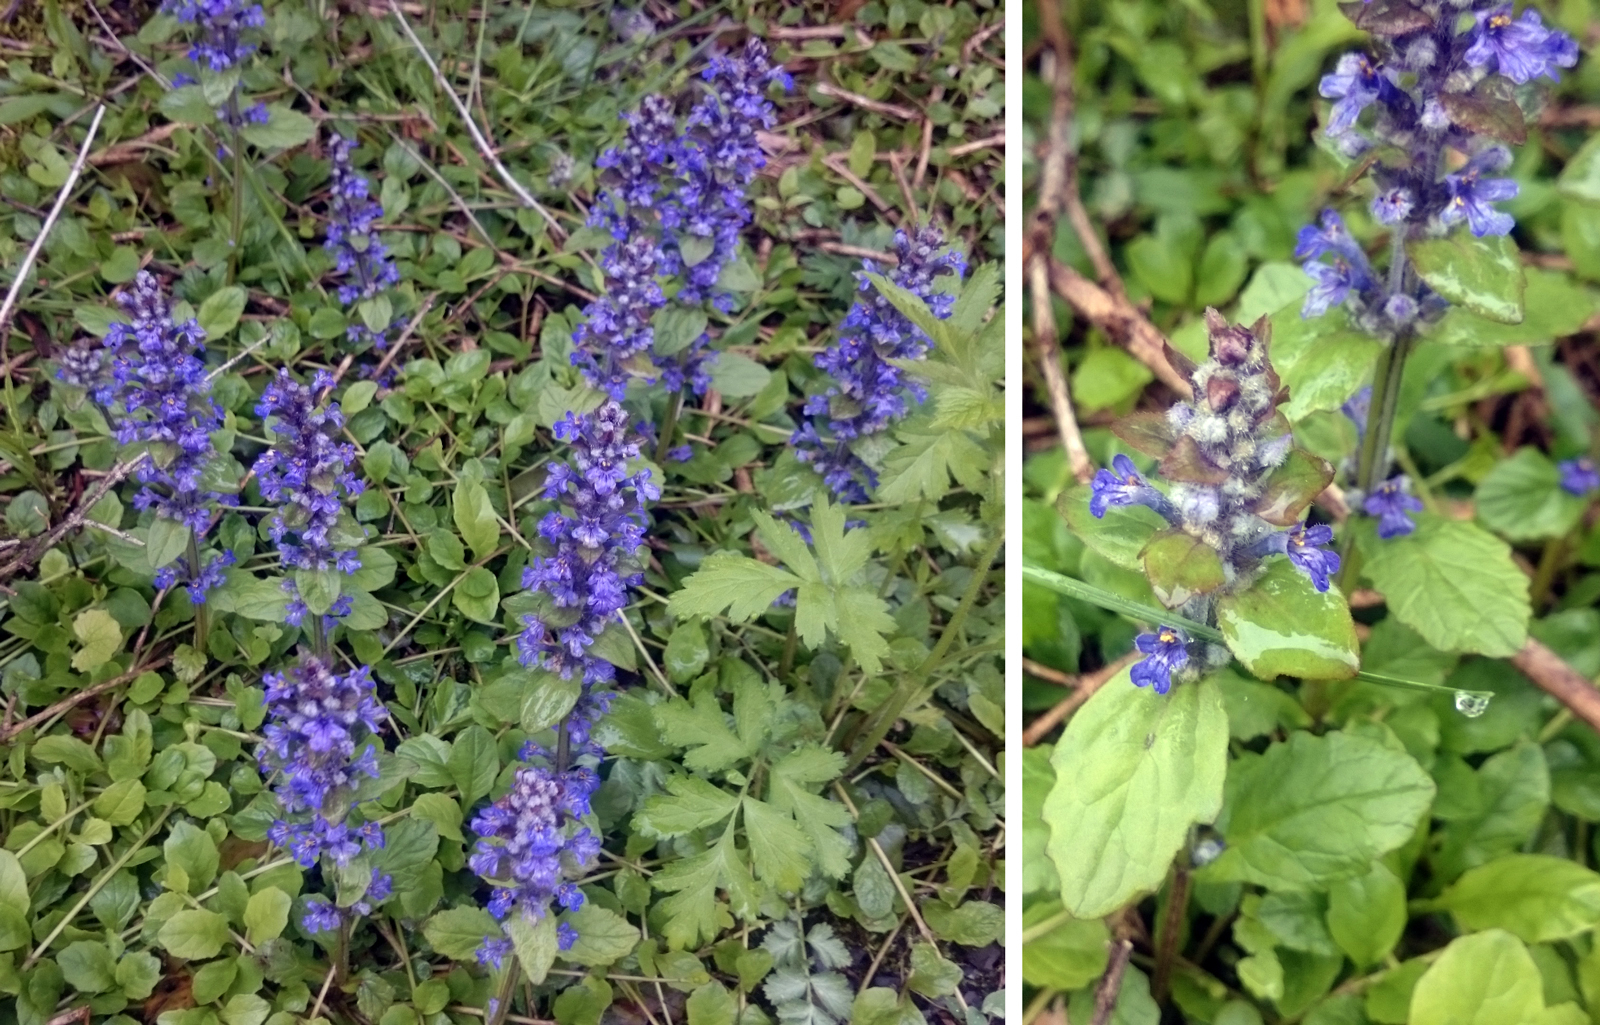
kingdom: Plantae
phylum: Tracheophyta
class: Magnoliopsida
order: Lamiales
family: Lamiaceae
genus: Ajuga
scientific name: Ajuga reptans
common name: Bugle
